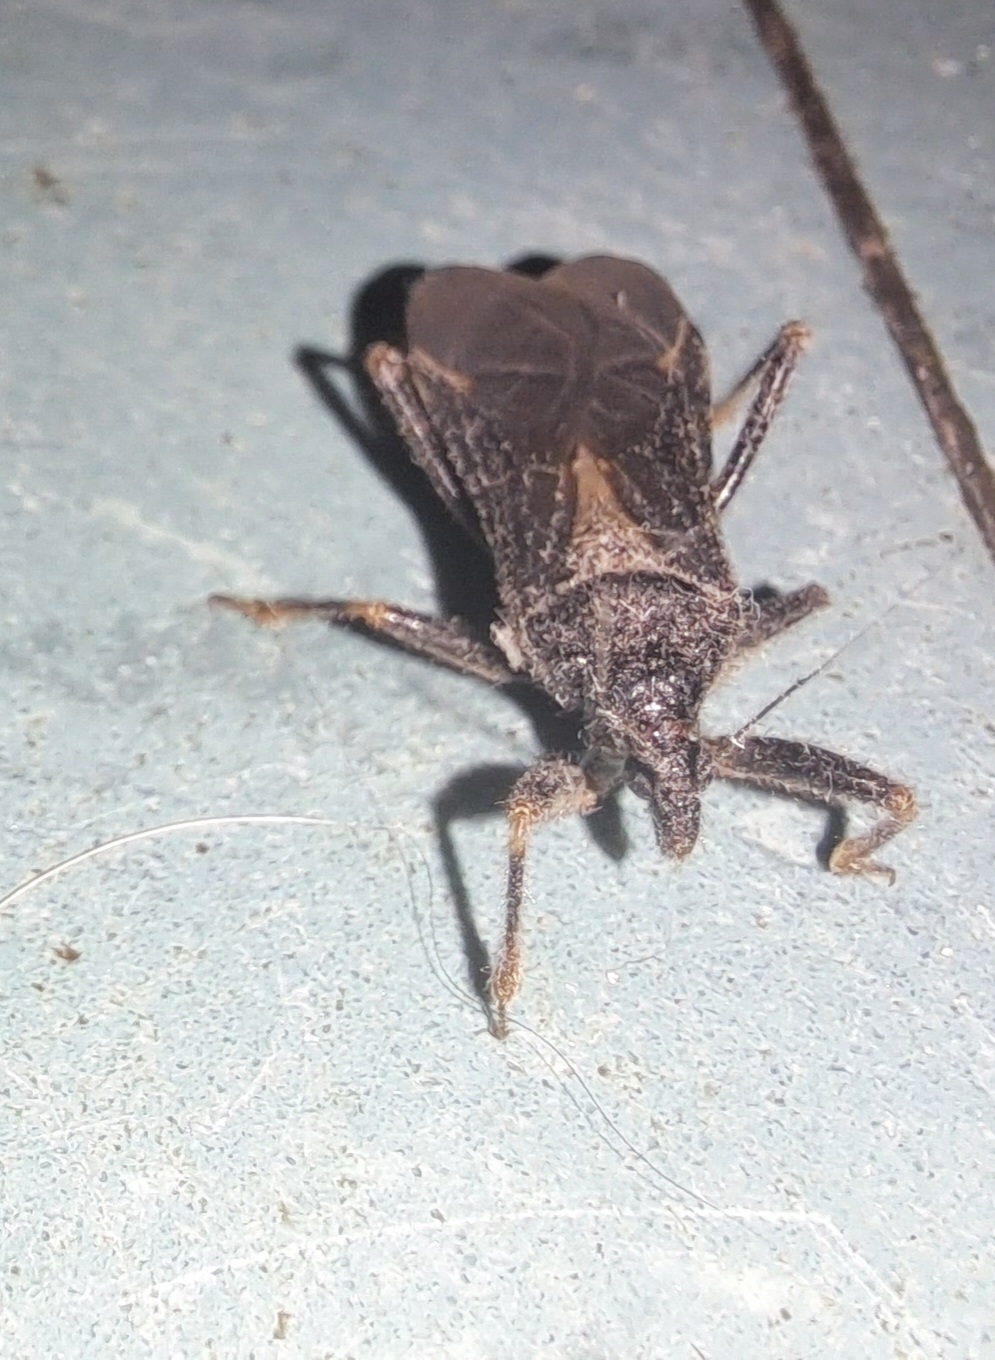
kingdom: Animalia
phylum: Arthropoda
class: Insecta
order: Hemiptera
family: Reduviidae
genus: Reduvius
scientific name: Reduvius personatus
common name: Masked hunter
